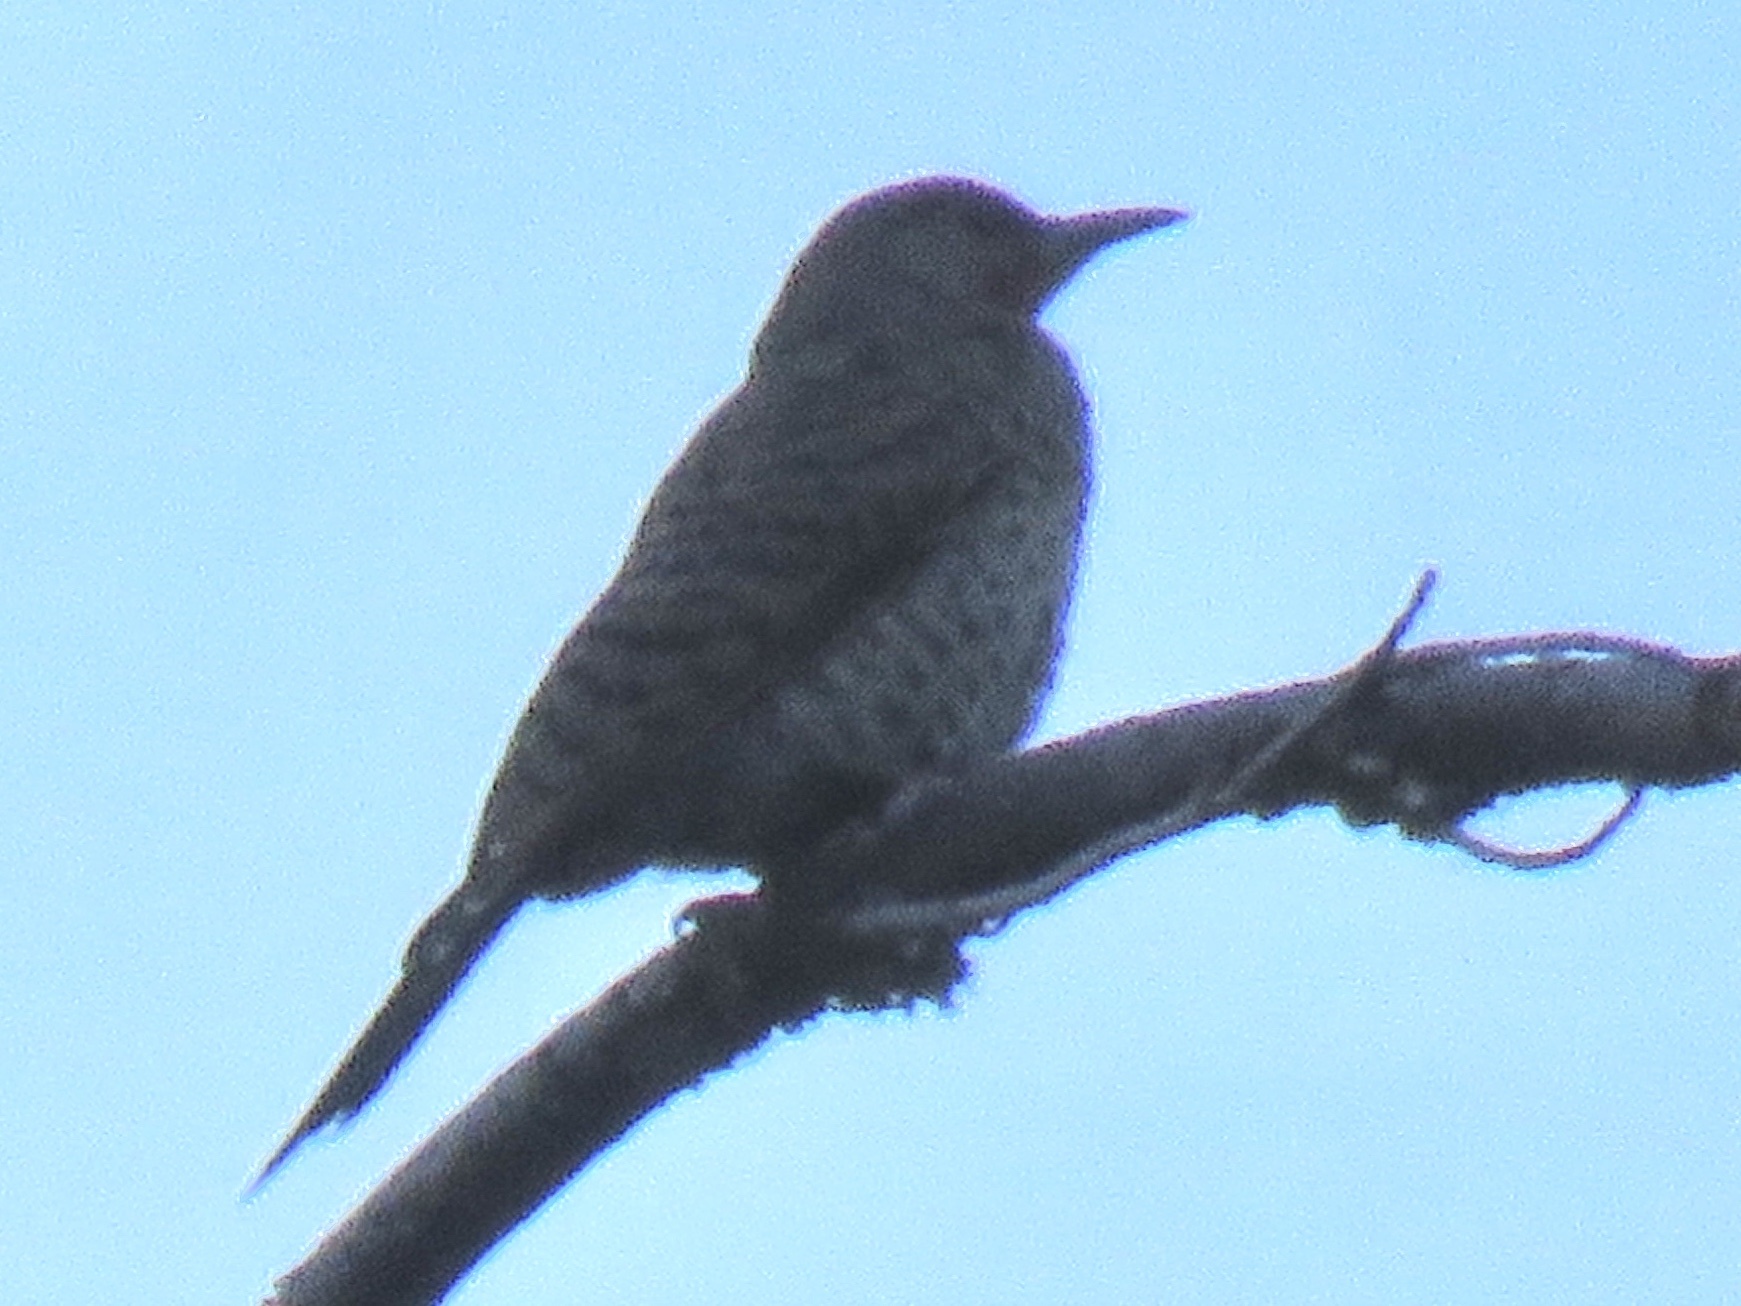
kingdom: Animalia
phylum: Chordata
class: Aves
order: Piciformes
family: Picidae
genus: Colaptes
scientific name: Colaptes auratus
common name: Northern flicker
